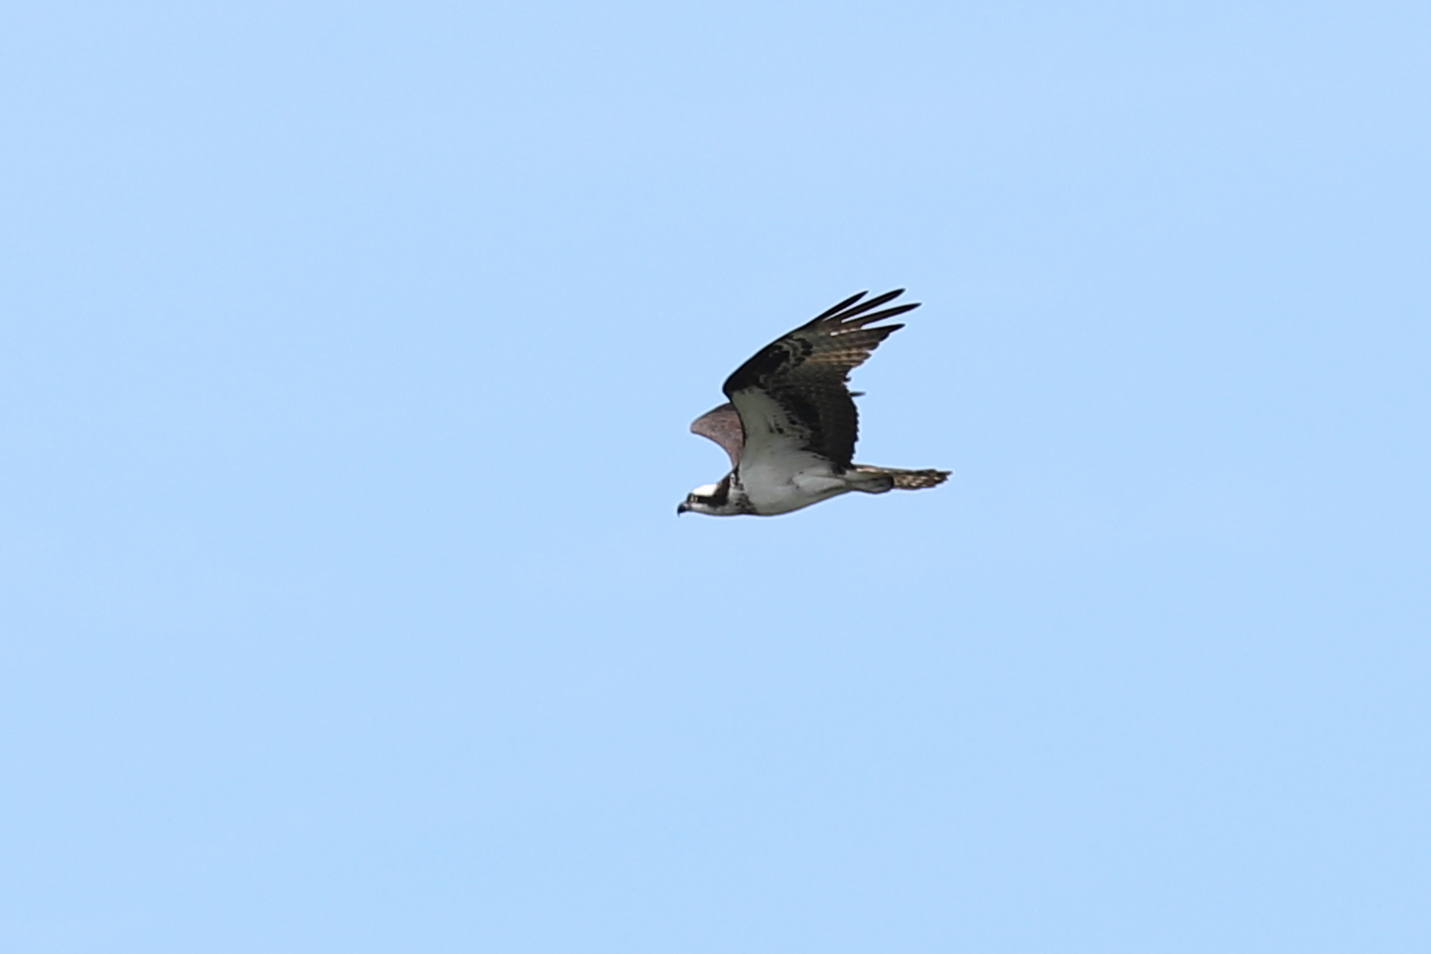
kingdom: Animalia
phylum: Chordata
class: Aves
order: Accipitriformes
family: Pandionidae
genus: Pandion
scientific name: Pandion haliaetus
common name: Osprey
